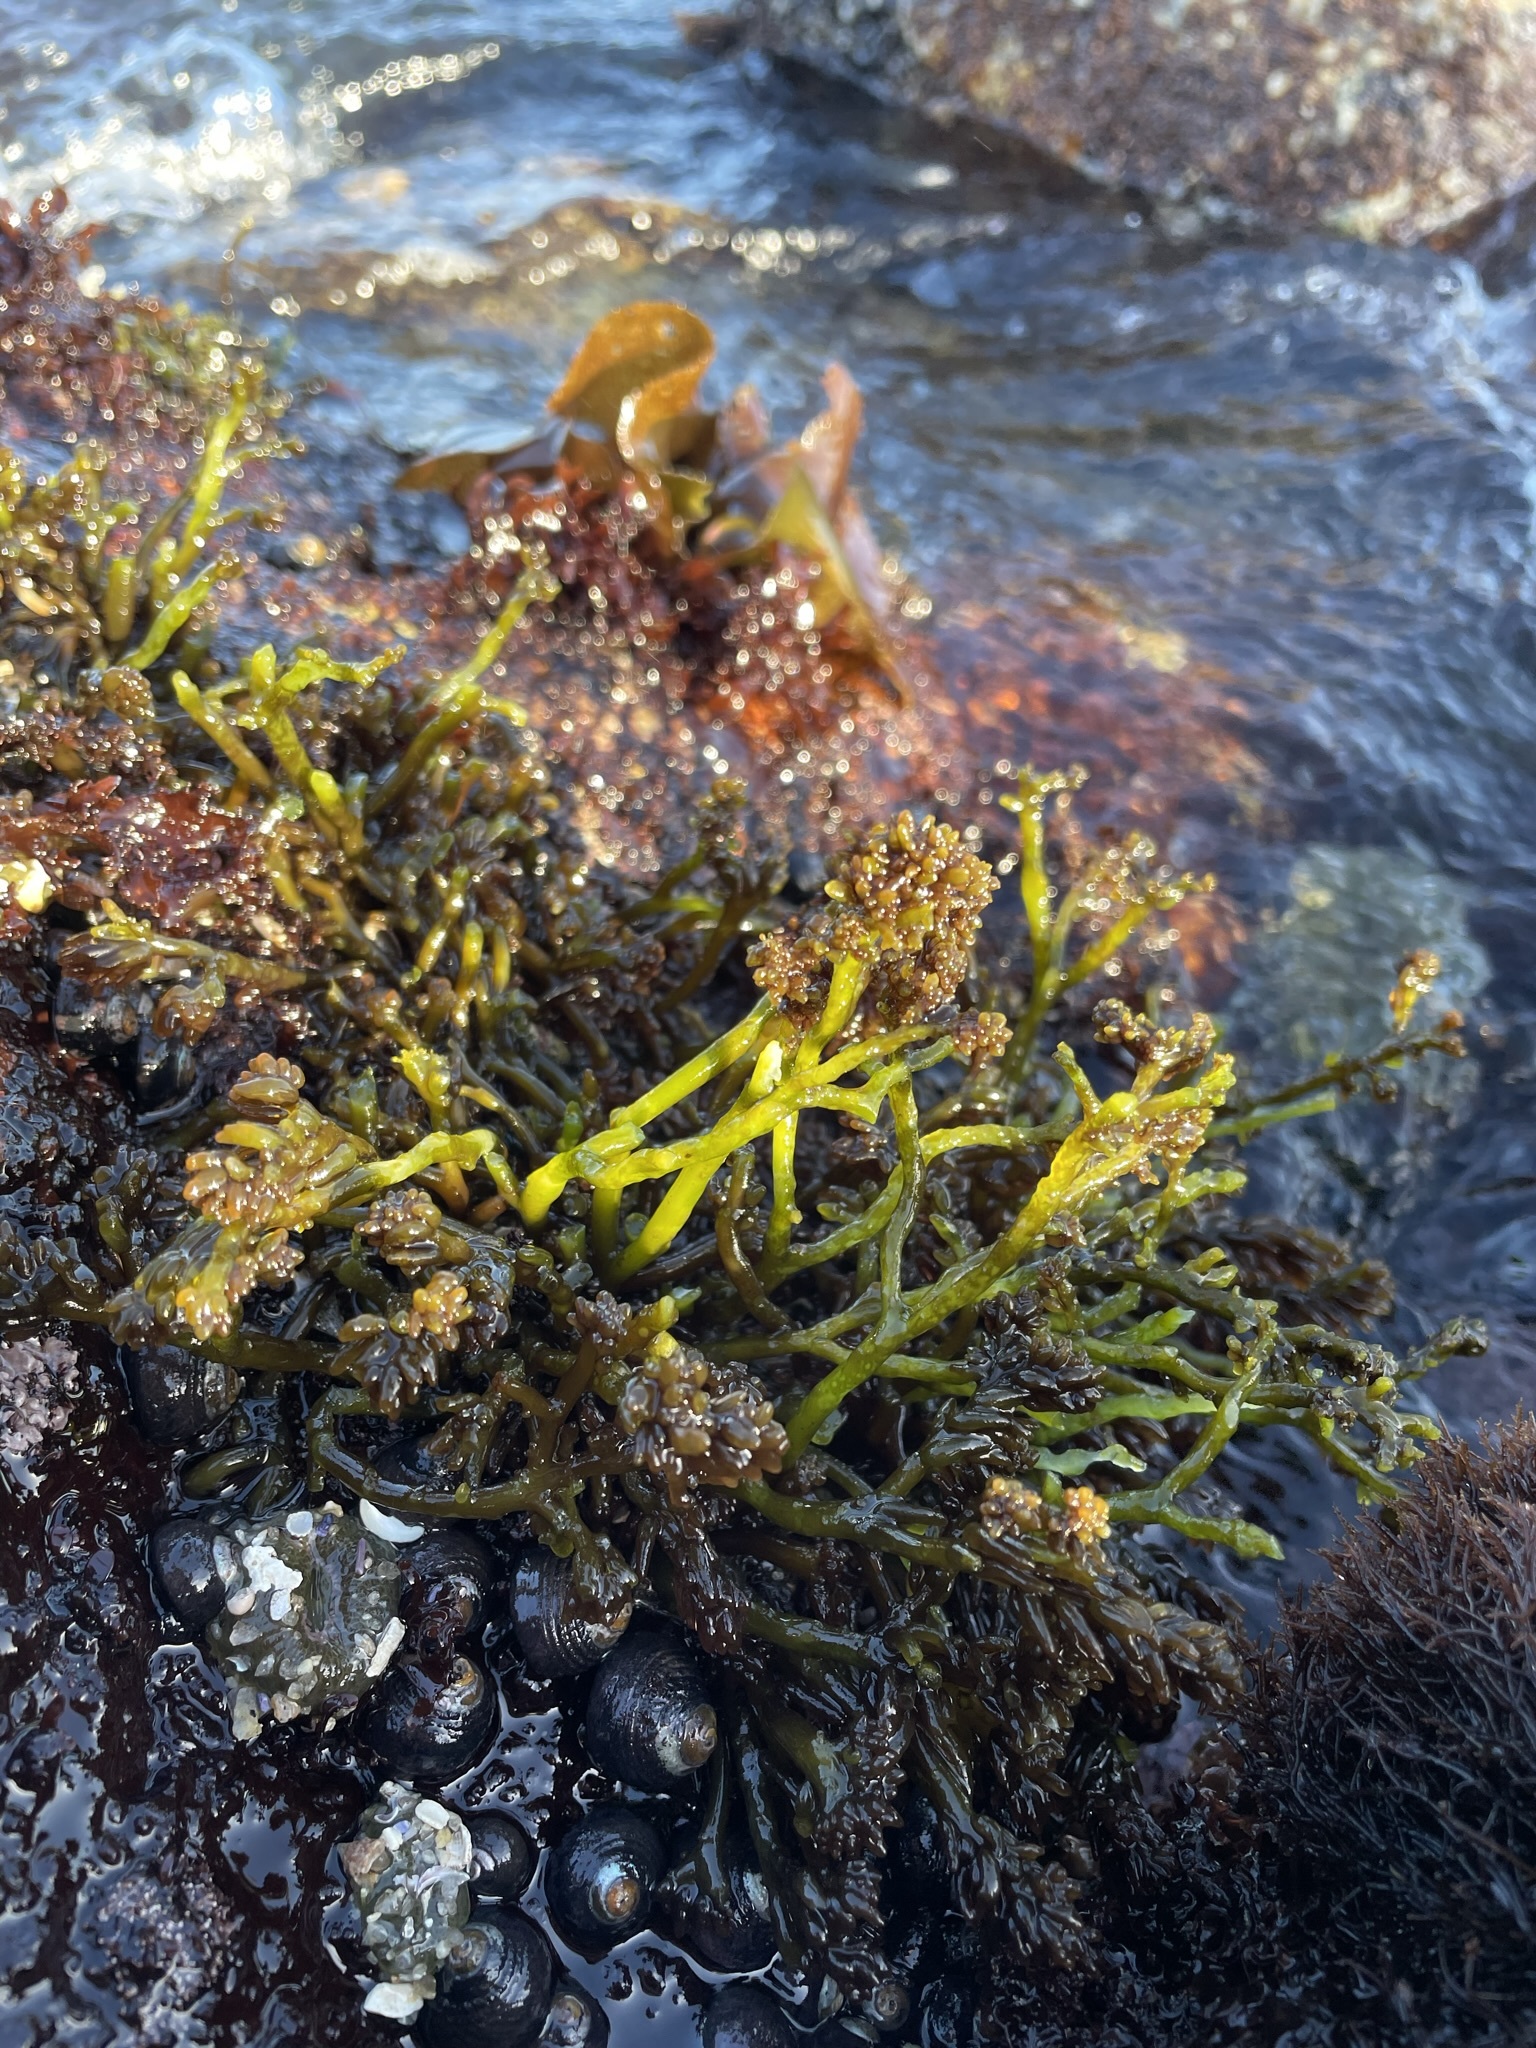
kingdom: Plantae
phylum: Rhodophyta
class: Florideophyceae
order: Rhodymeniales
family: Champiaceae
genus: Neogastroclonium
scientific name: Neogastroclonium subarticulatum
